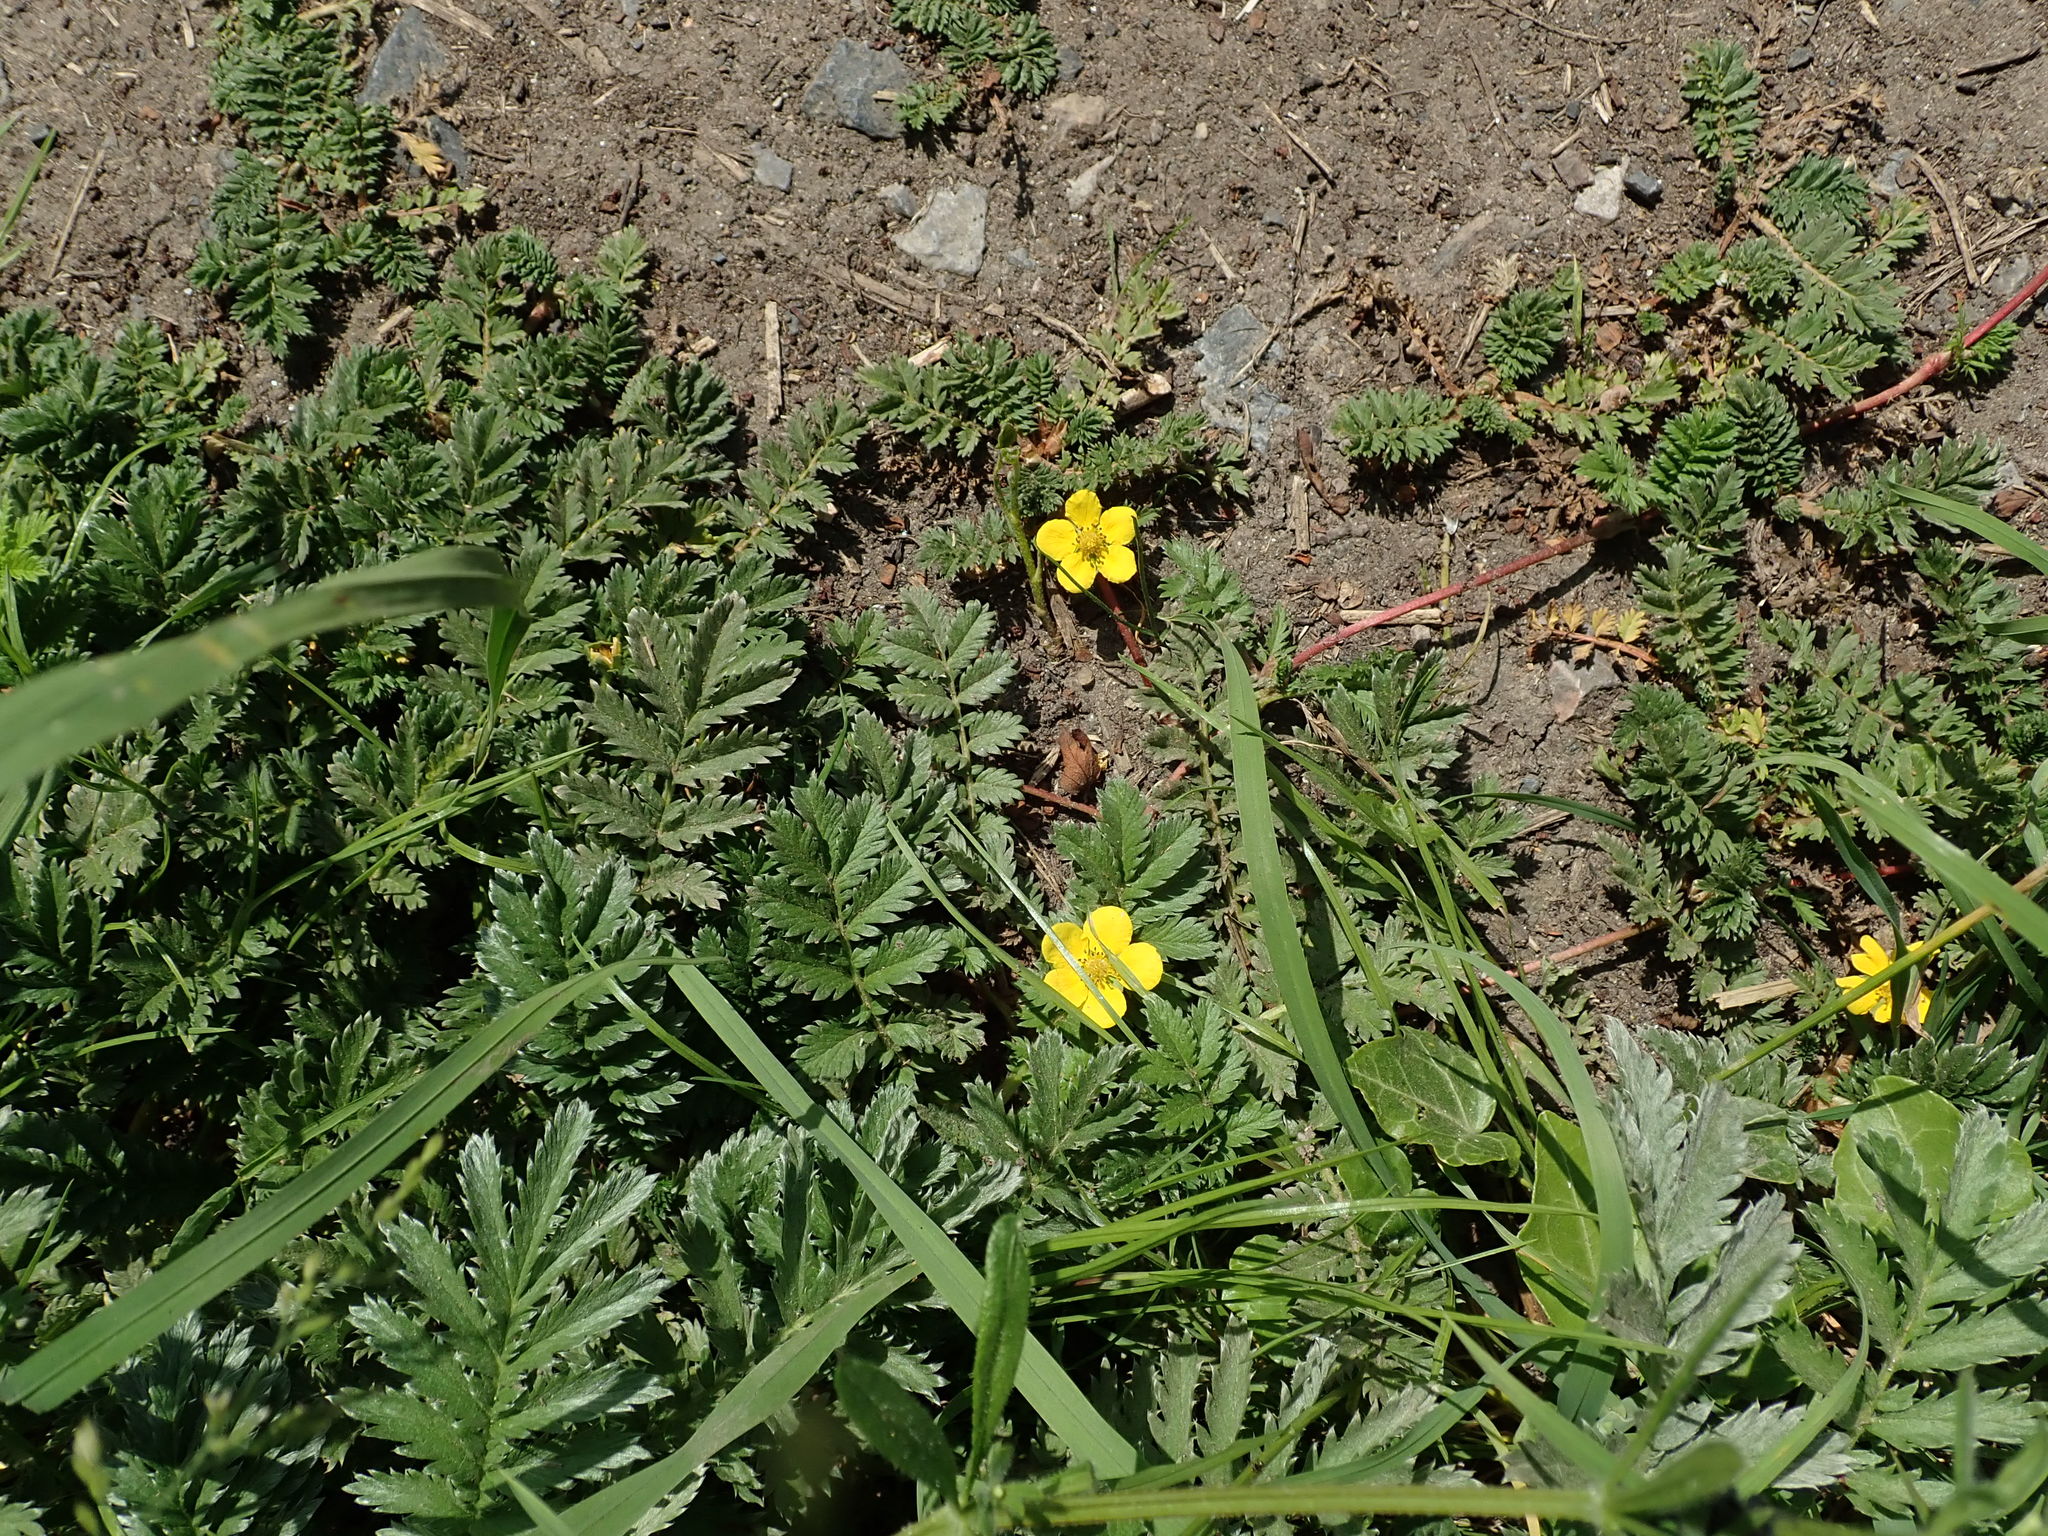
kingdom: Plantae
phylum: Tracheophyta
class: Magnoliopsida
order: Rosales
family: Rosaceae
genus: Argentina
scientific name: Argentina anserina
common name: Common silverweed
